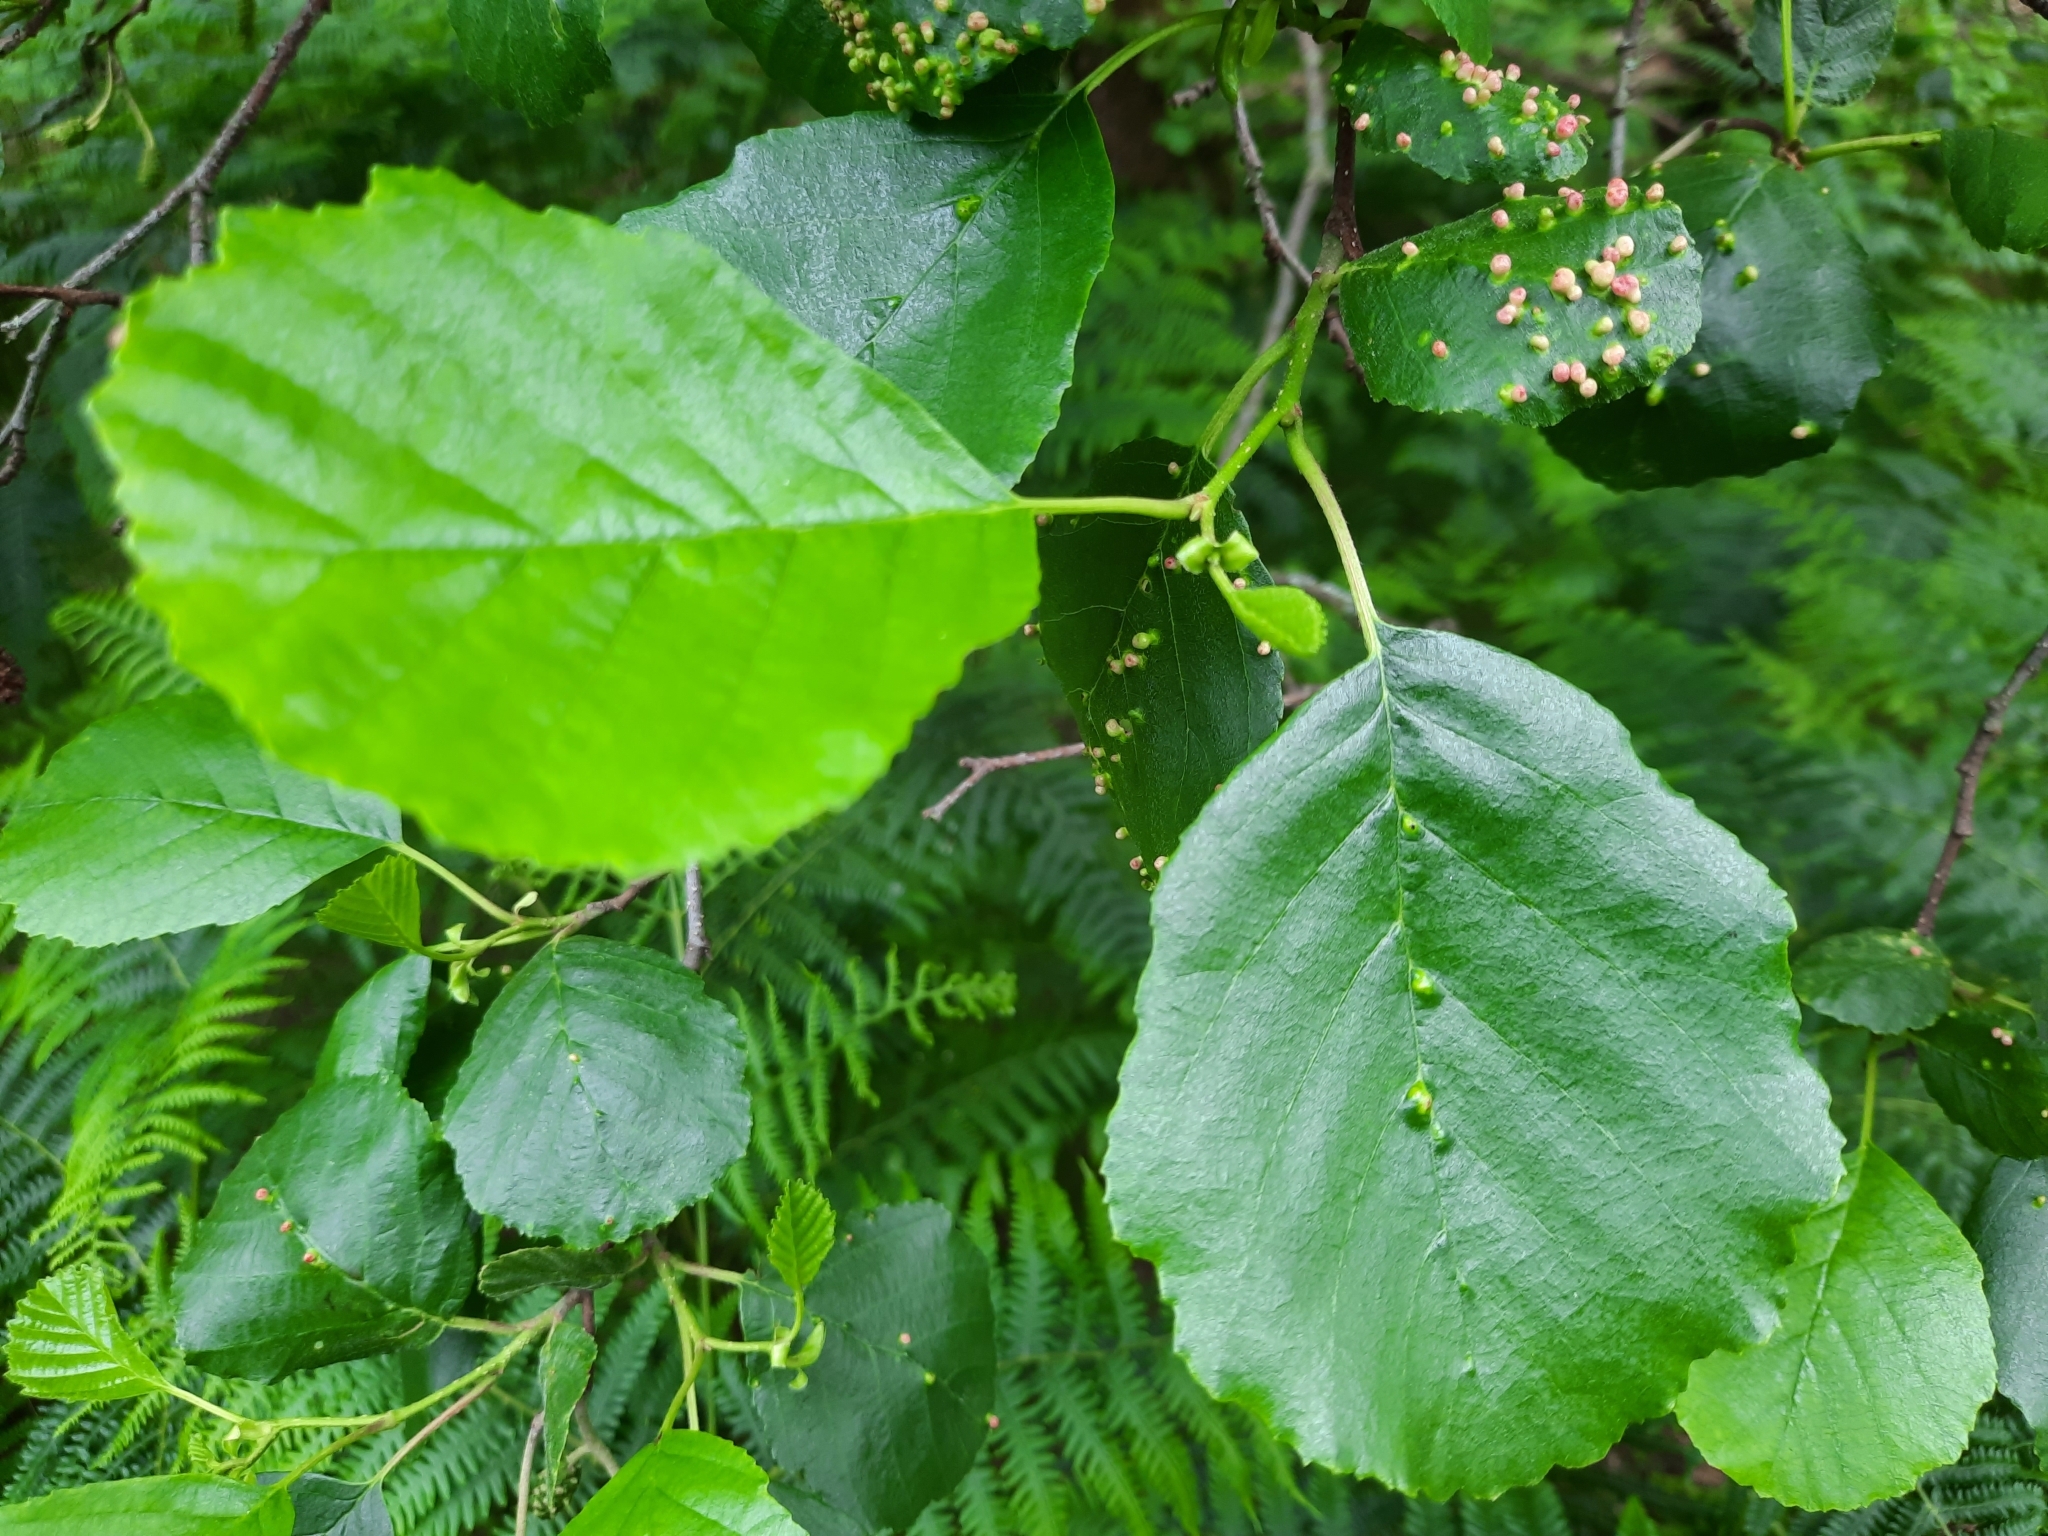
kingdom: Animalia
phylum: Arthropoda
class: Arachnida
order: Trombidiformes
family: Eriophyidae
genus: Eriophyes
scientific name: Eriophyes laevis
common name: Alder leaf gall mite
